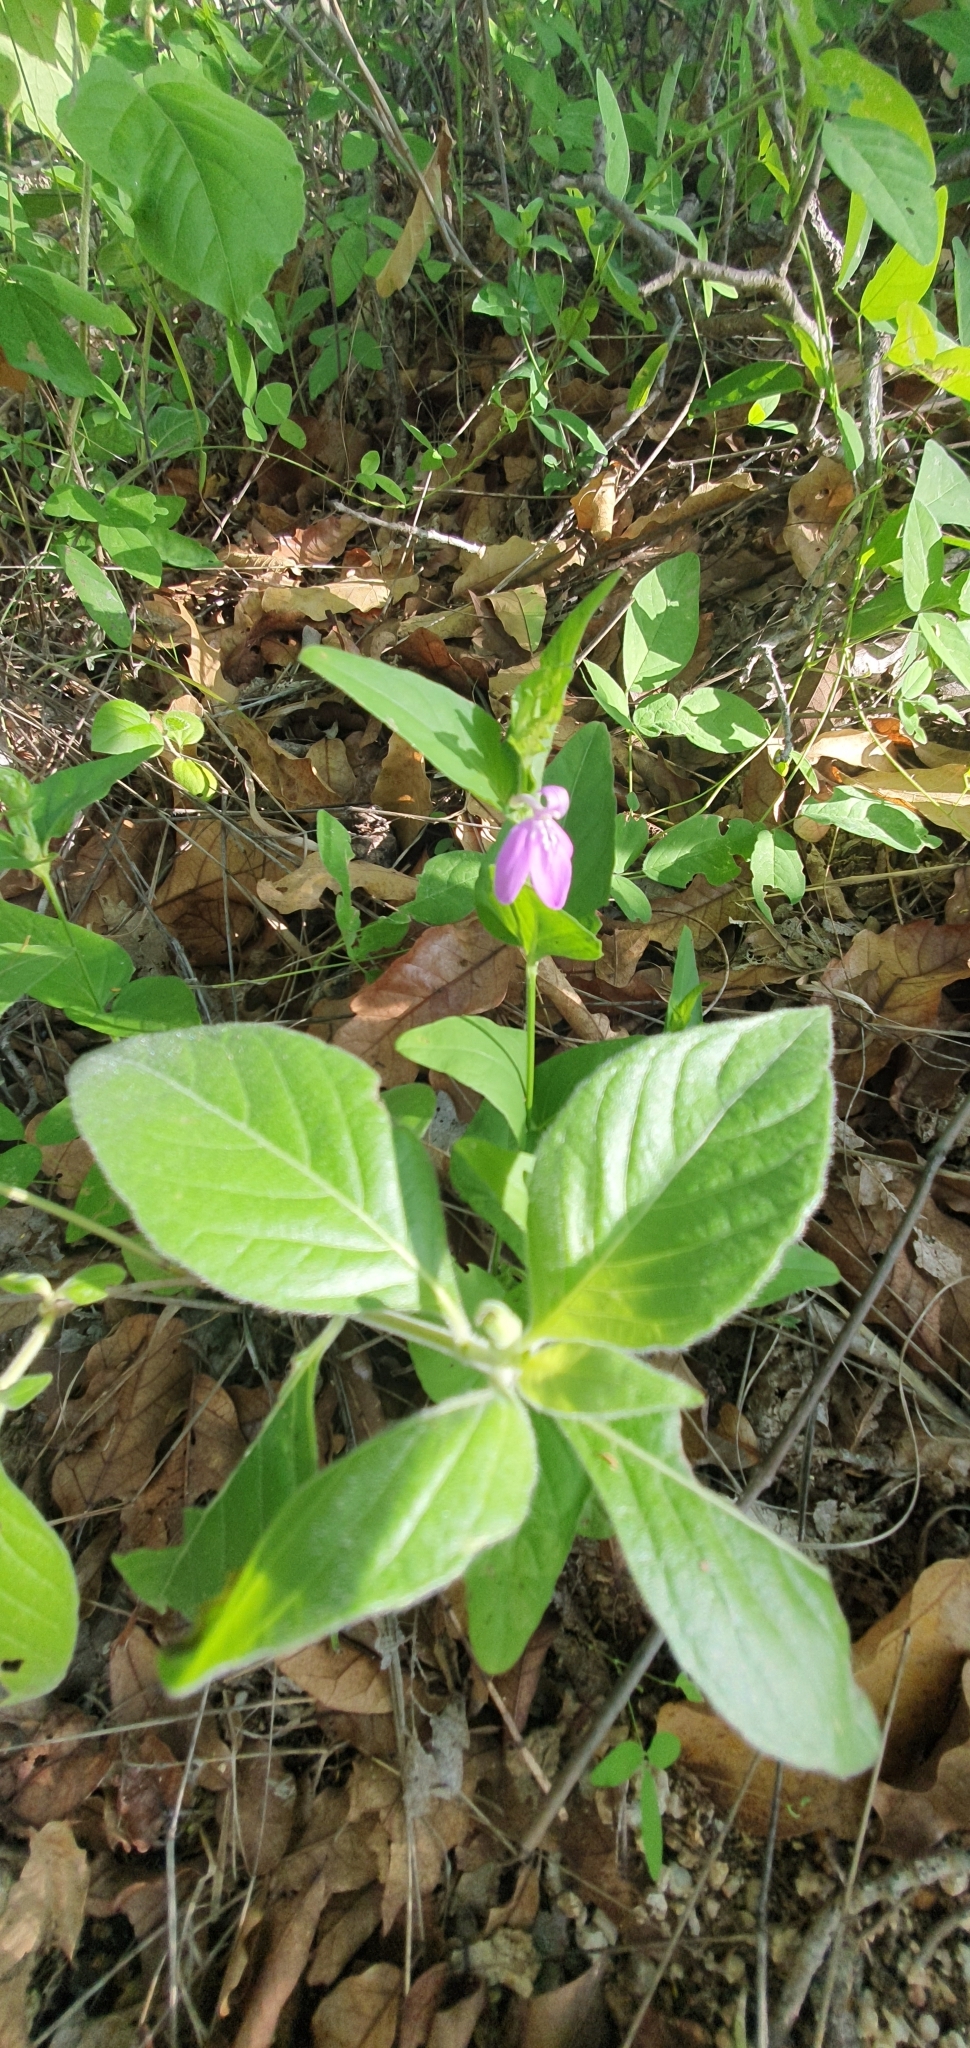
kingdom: Plantae
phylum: Tracheophyta
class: Magnoliopsida
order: Lamiales
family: Acanthaceae
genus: Dianthera
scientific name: Dianthera incerta
